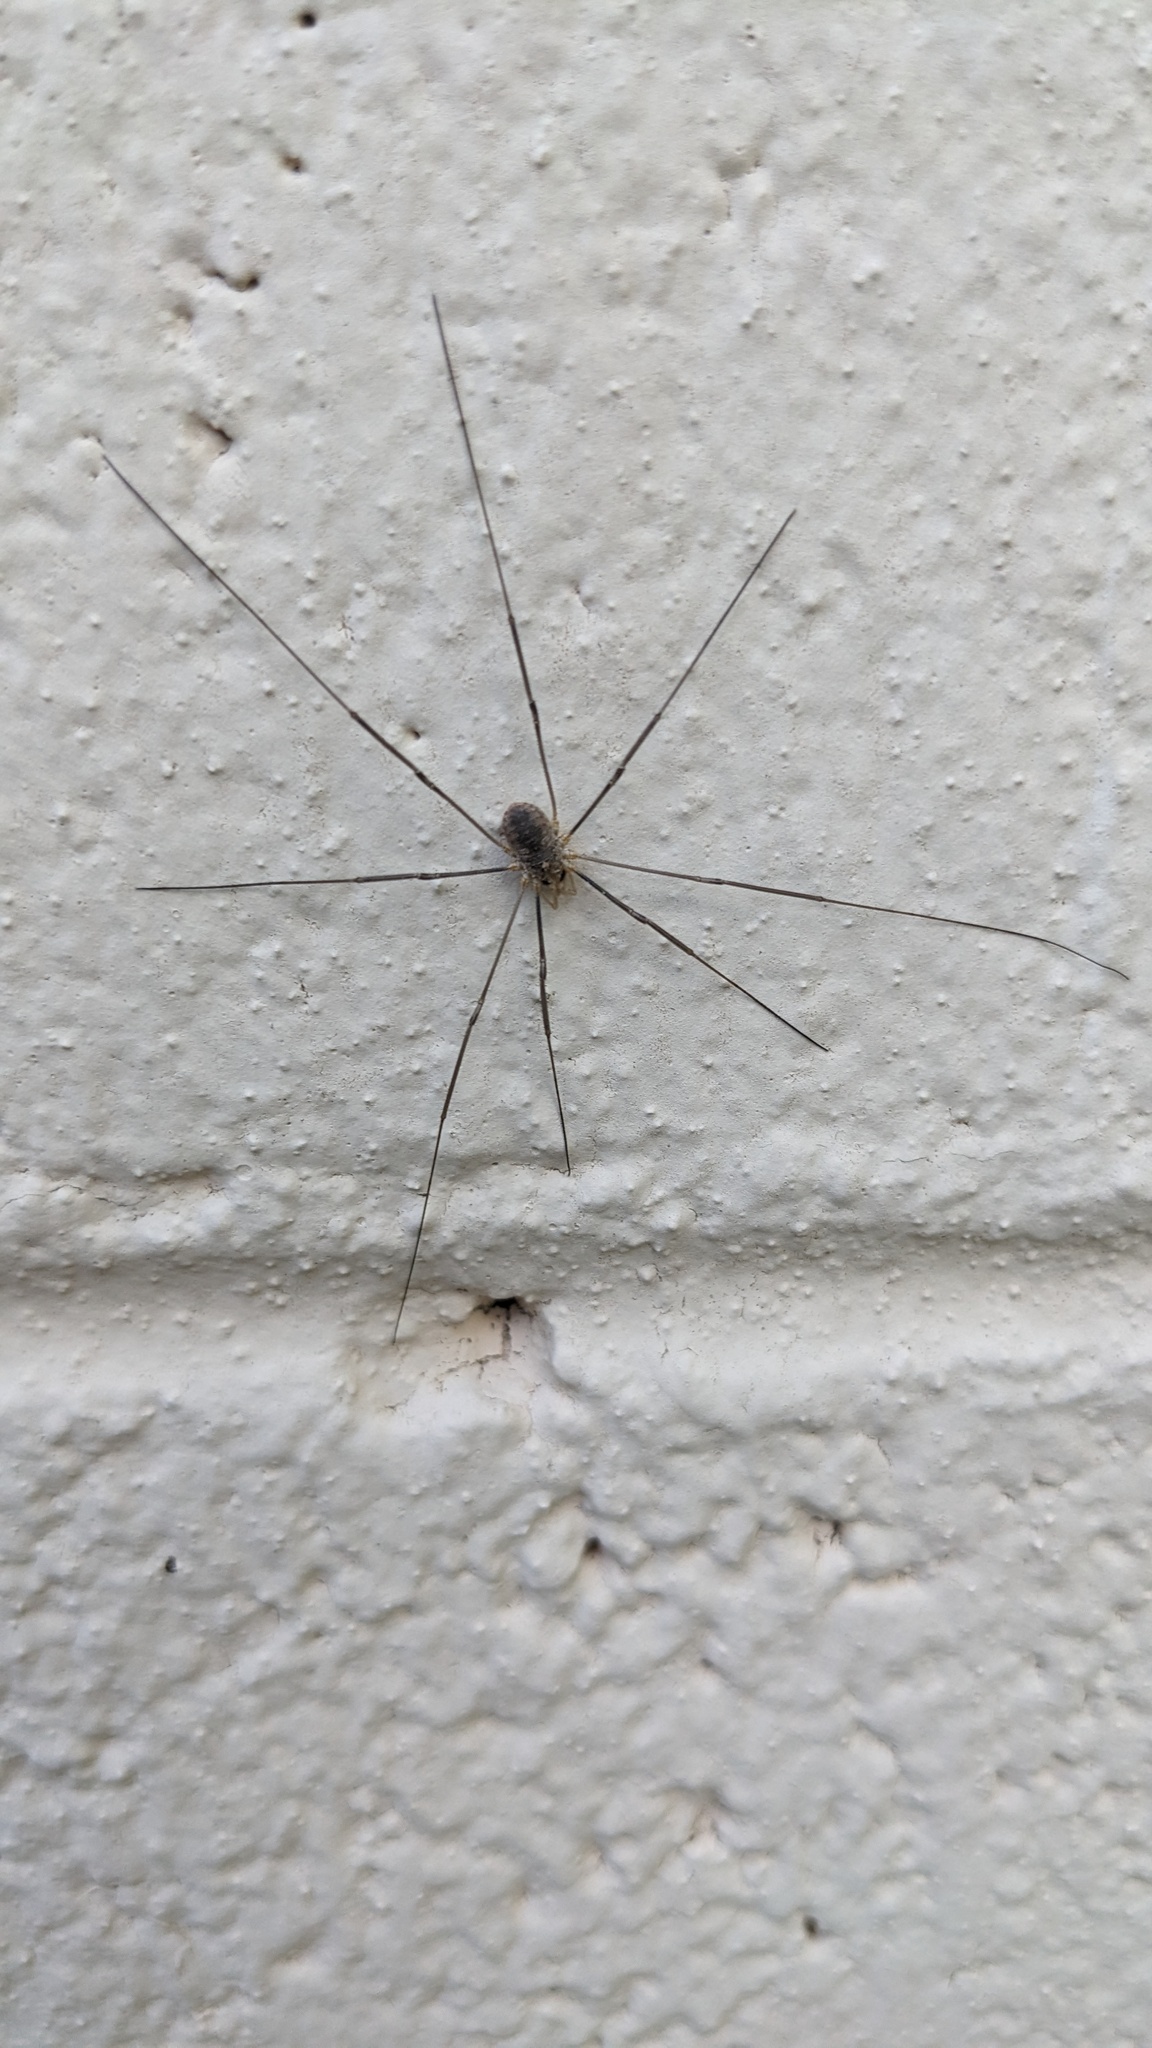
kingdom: Animalia
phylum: Arthropoda
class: Arachnida
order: Opiliones
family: Phalangiidae
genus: Phalangium
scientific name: Phalangium opilio
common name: Daddy longleg
